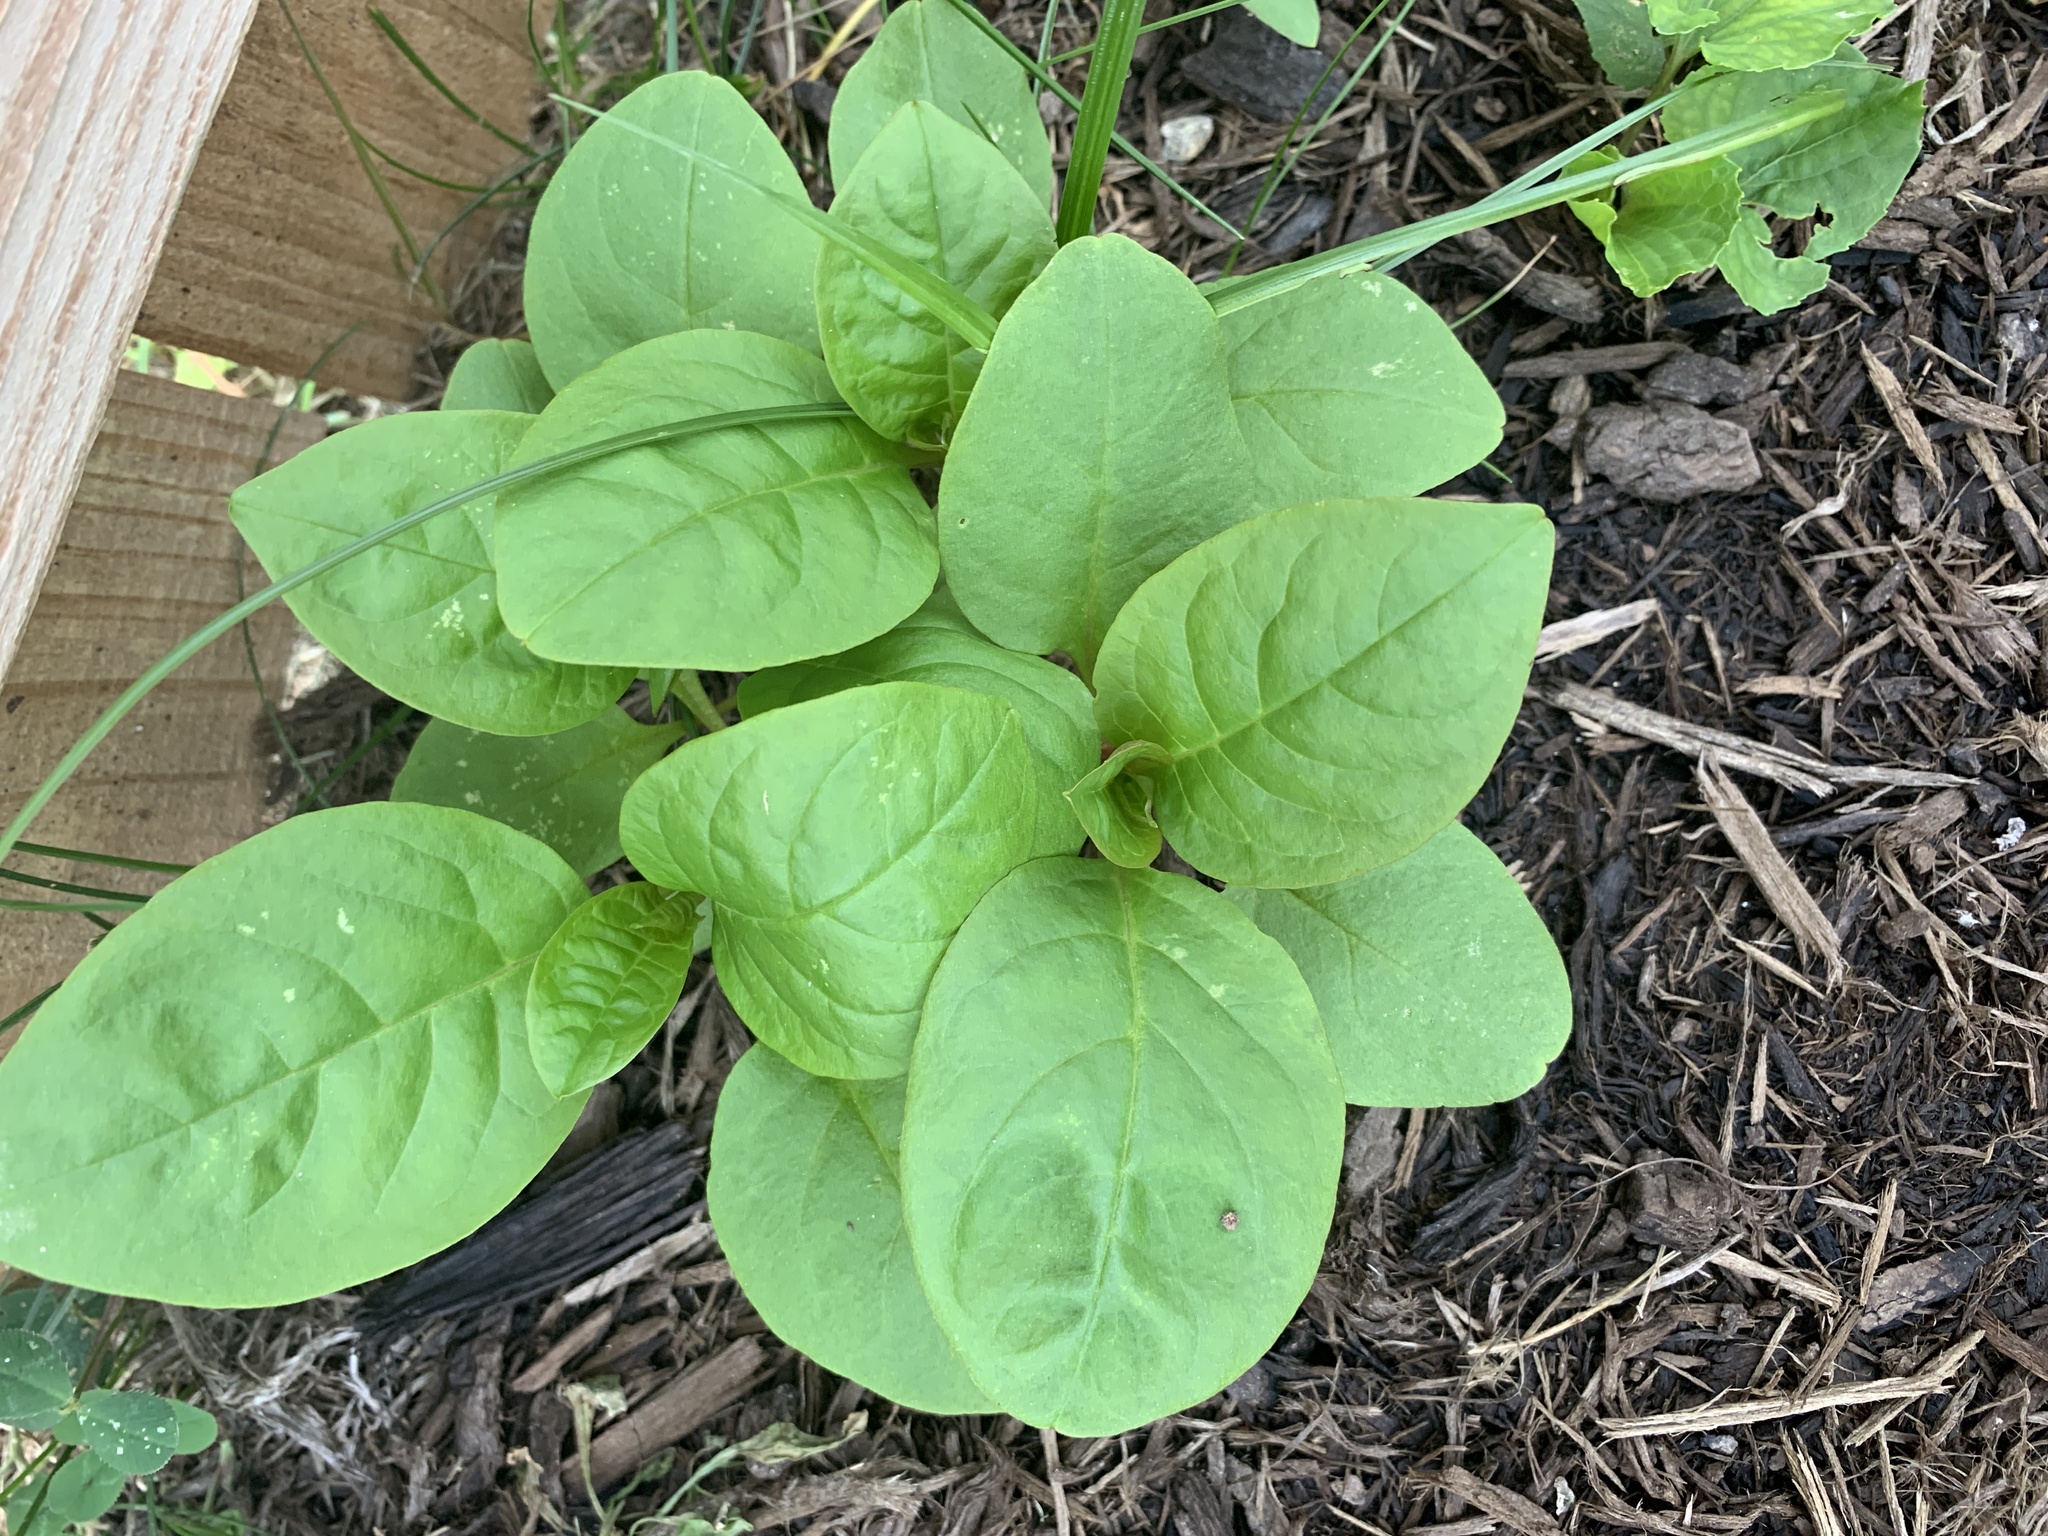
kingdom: Plantae
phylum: Tracheophyta
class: Magnoliopsida
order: Caryophyllales
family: Phytolaccaceae
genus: Phytolacca
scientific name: Phytolacca americana
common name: American pokeweed
